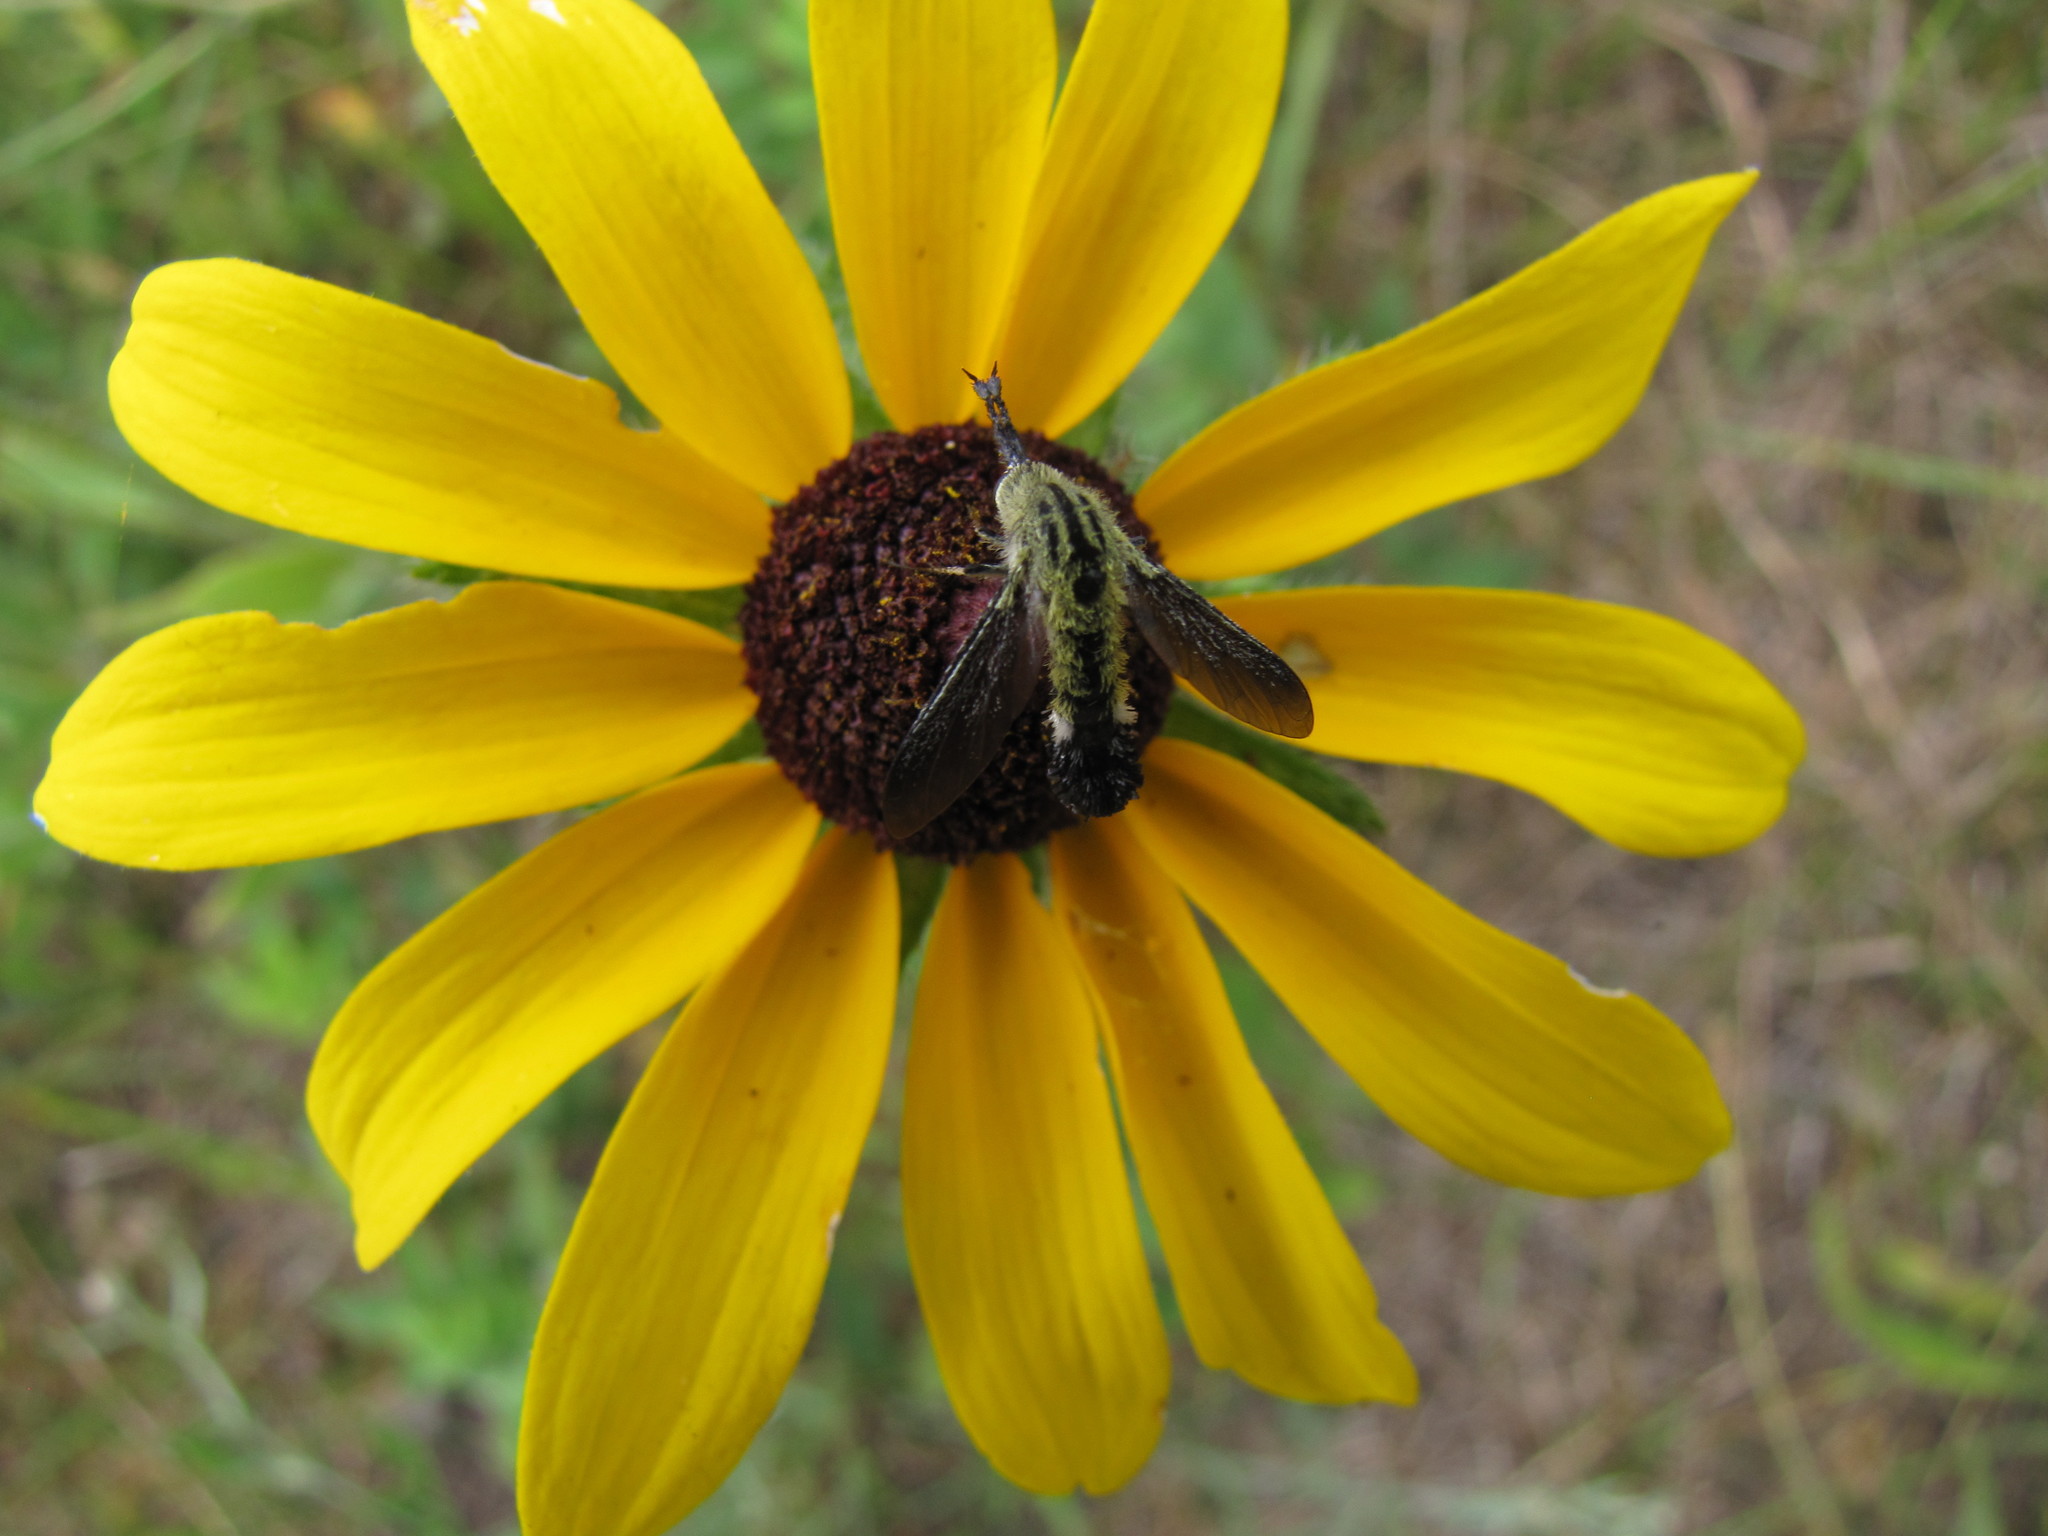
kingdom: Animalia
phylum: Arthropoda
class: Insecta
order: Diptera
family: Bombyliidae
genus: Lepidophora
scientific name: Lepidophora lutea
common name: Hunchback bee fly
